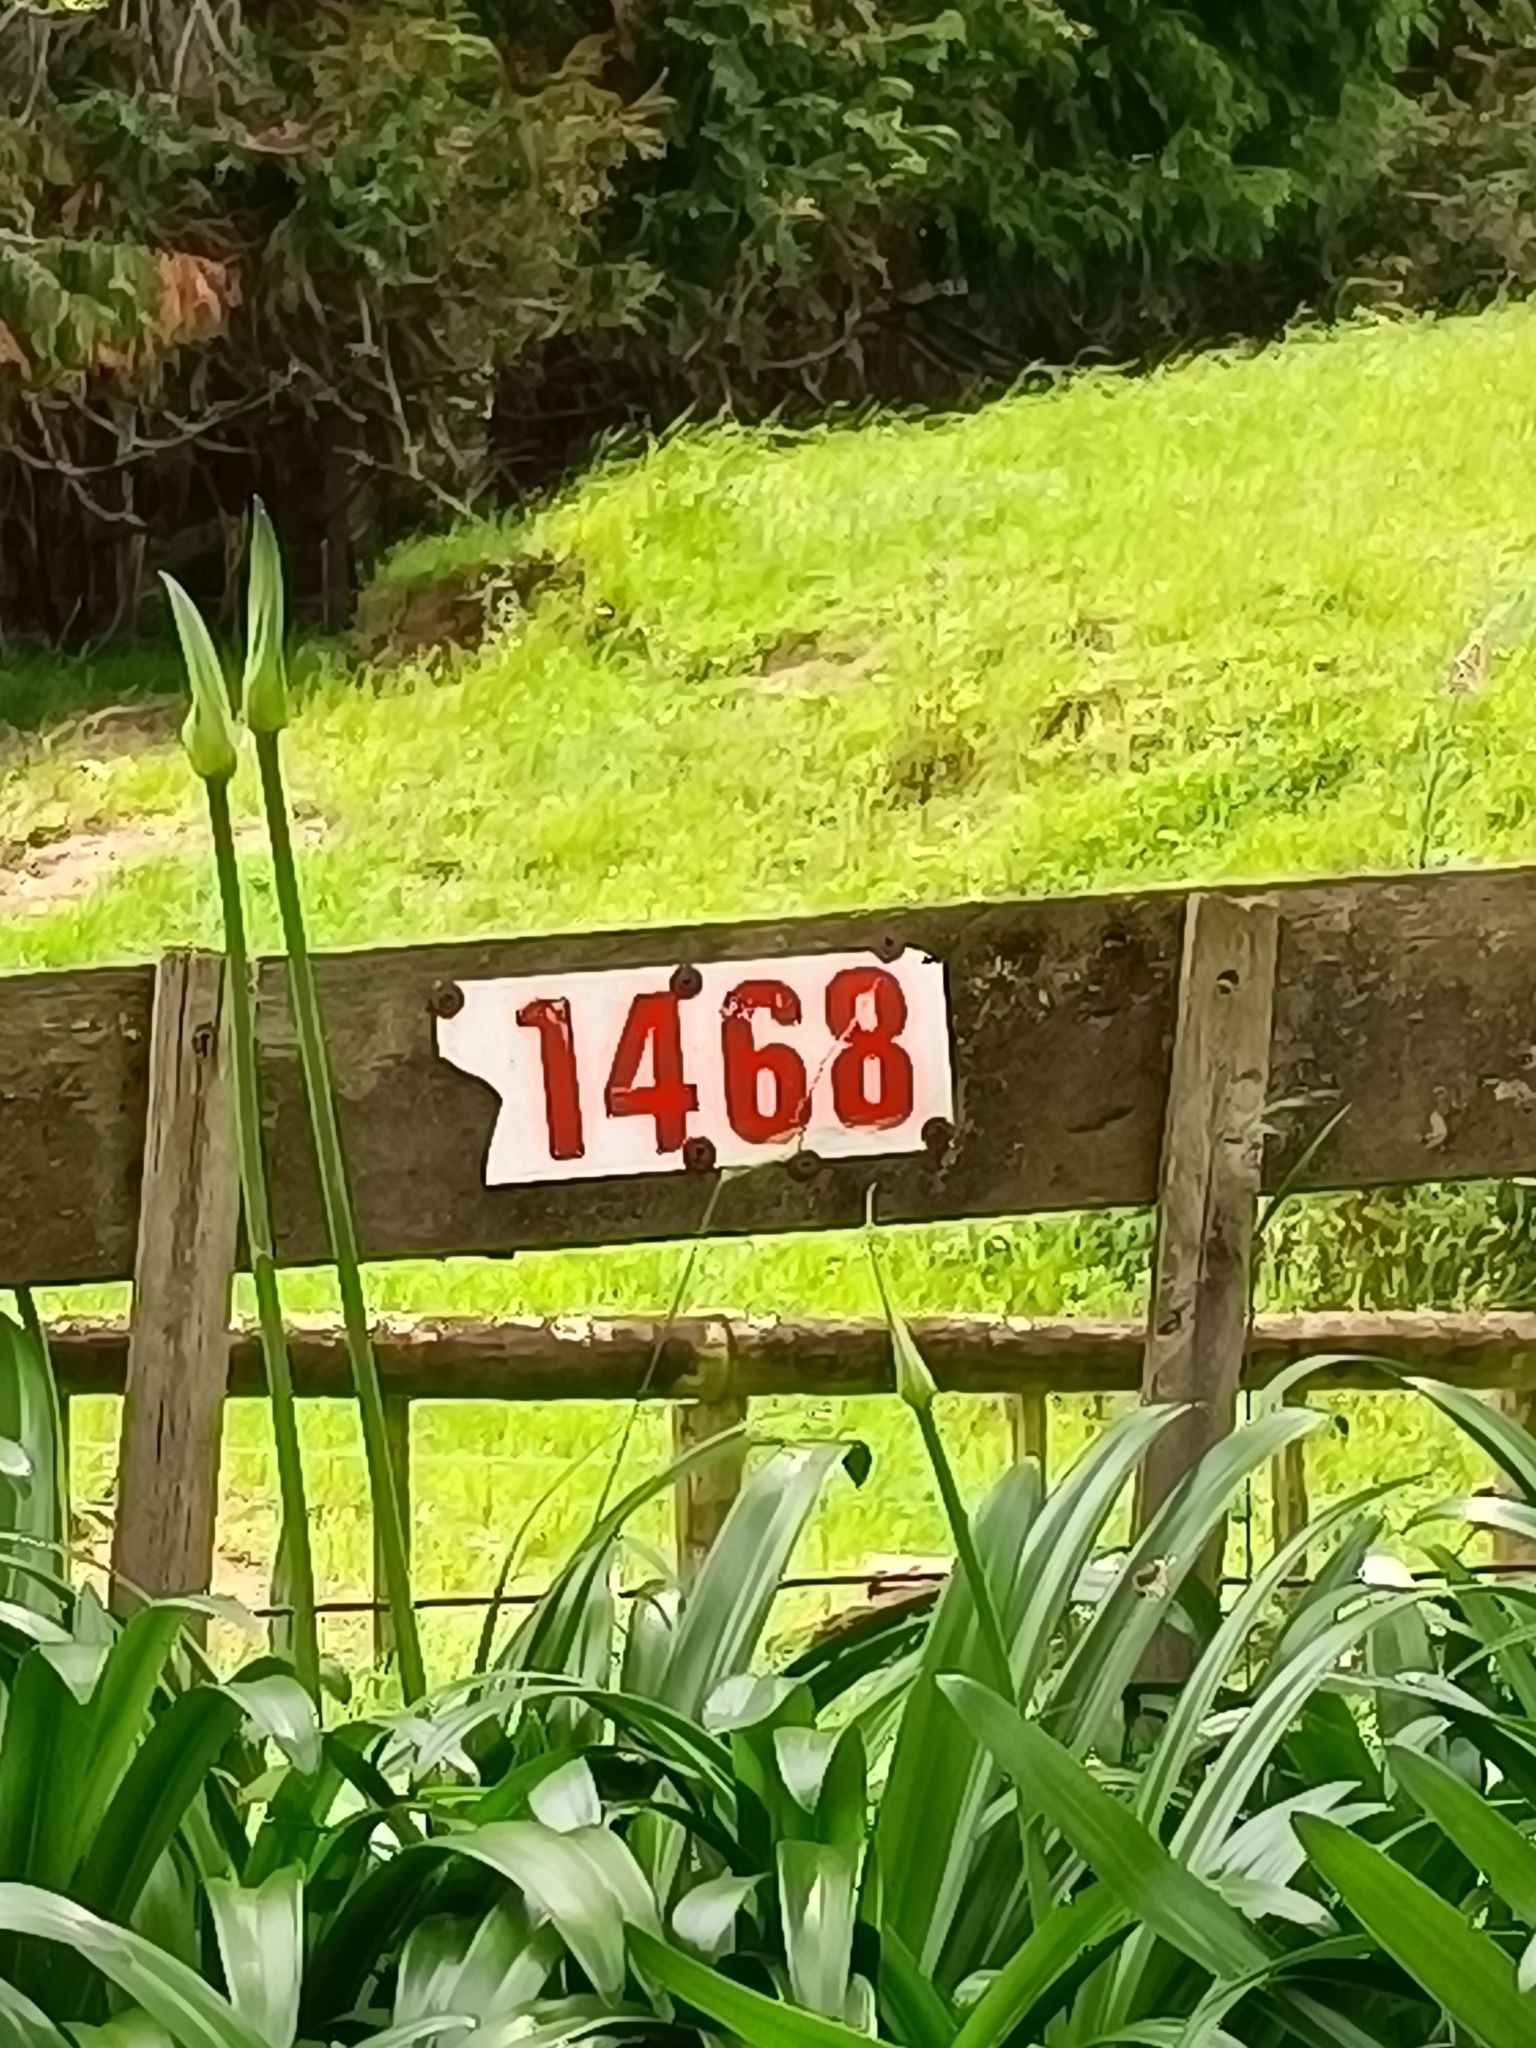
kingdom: Plantae
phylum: Tracheophyta
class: Liliopsida
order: Asparagales
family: Asparagaceae
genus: Asparagus
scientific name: Asparagus scandens
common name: Asparagus-fern
